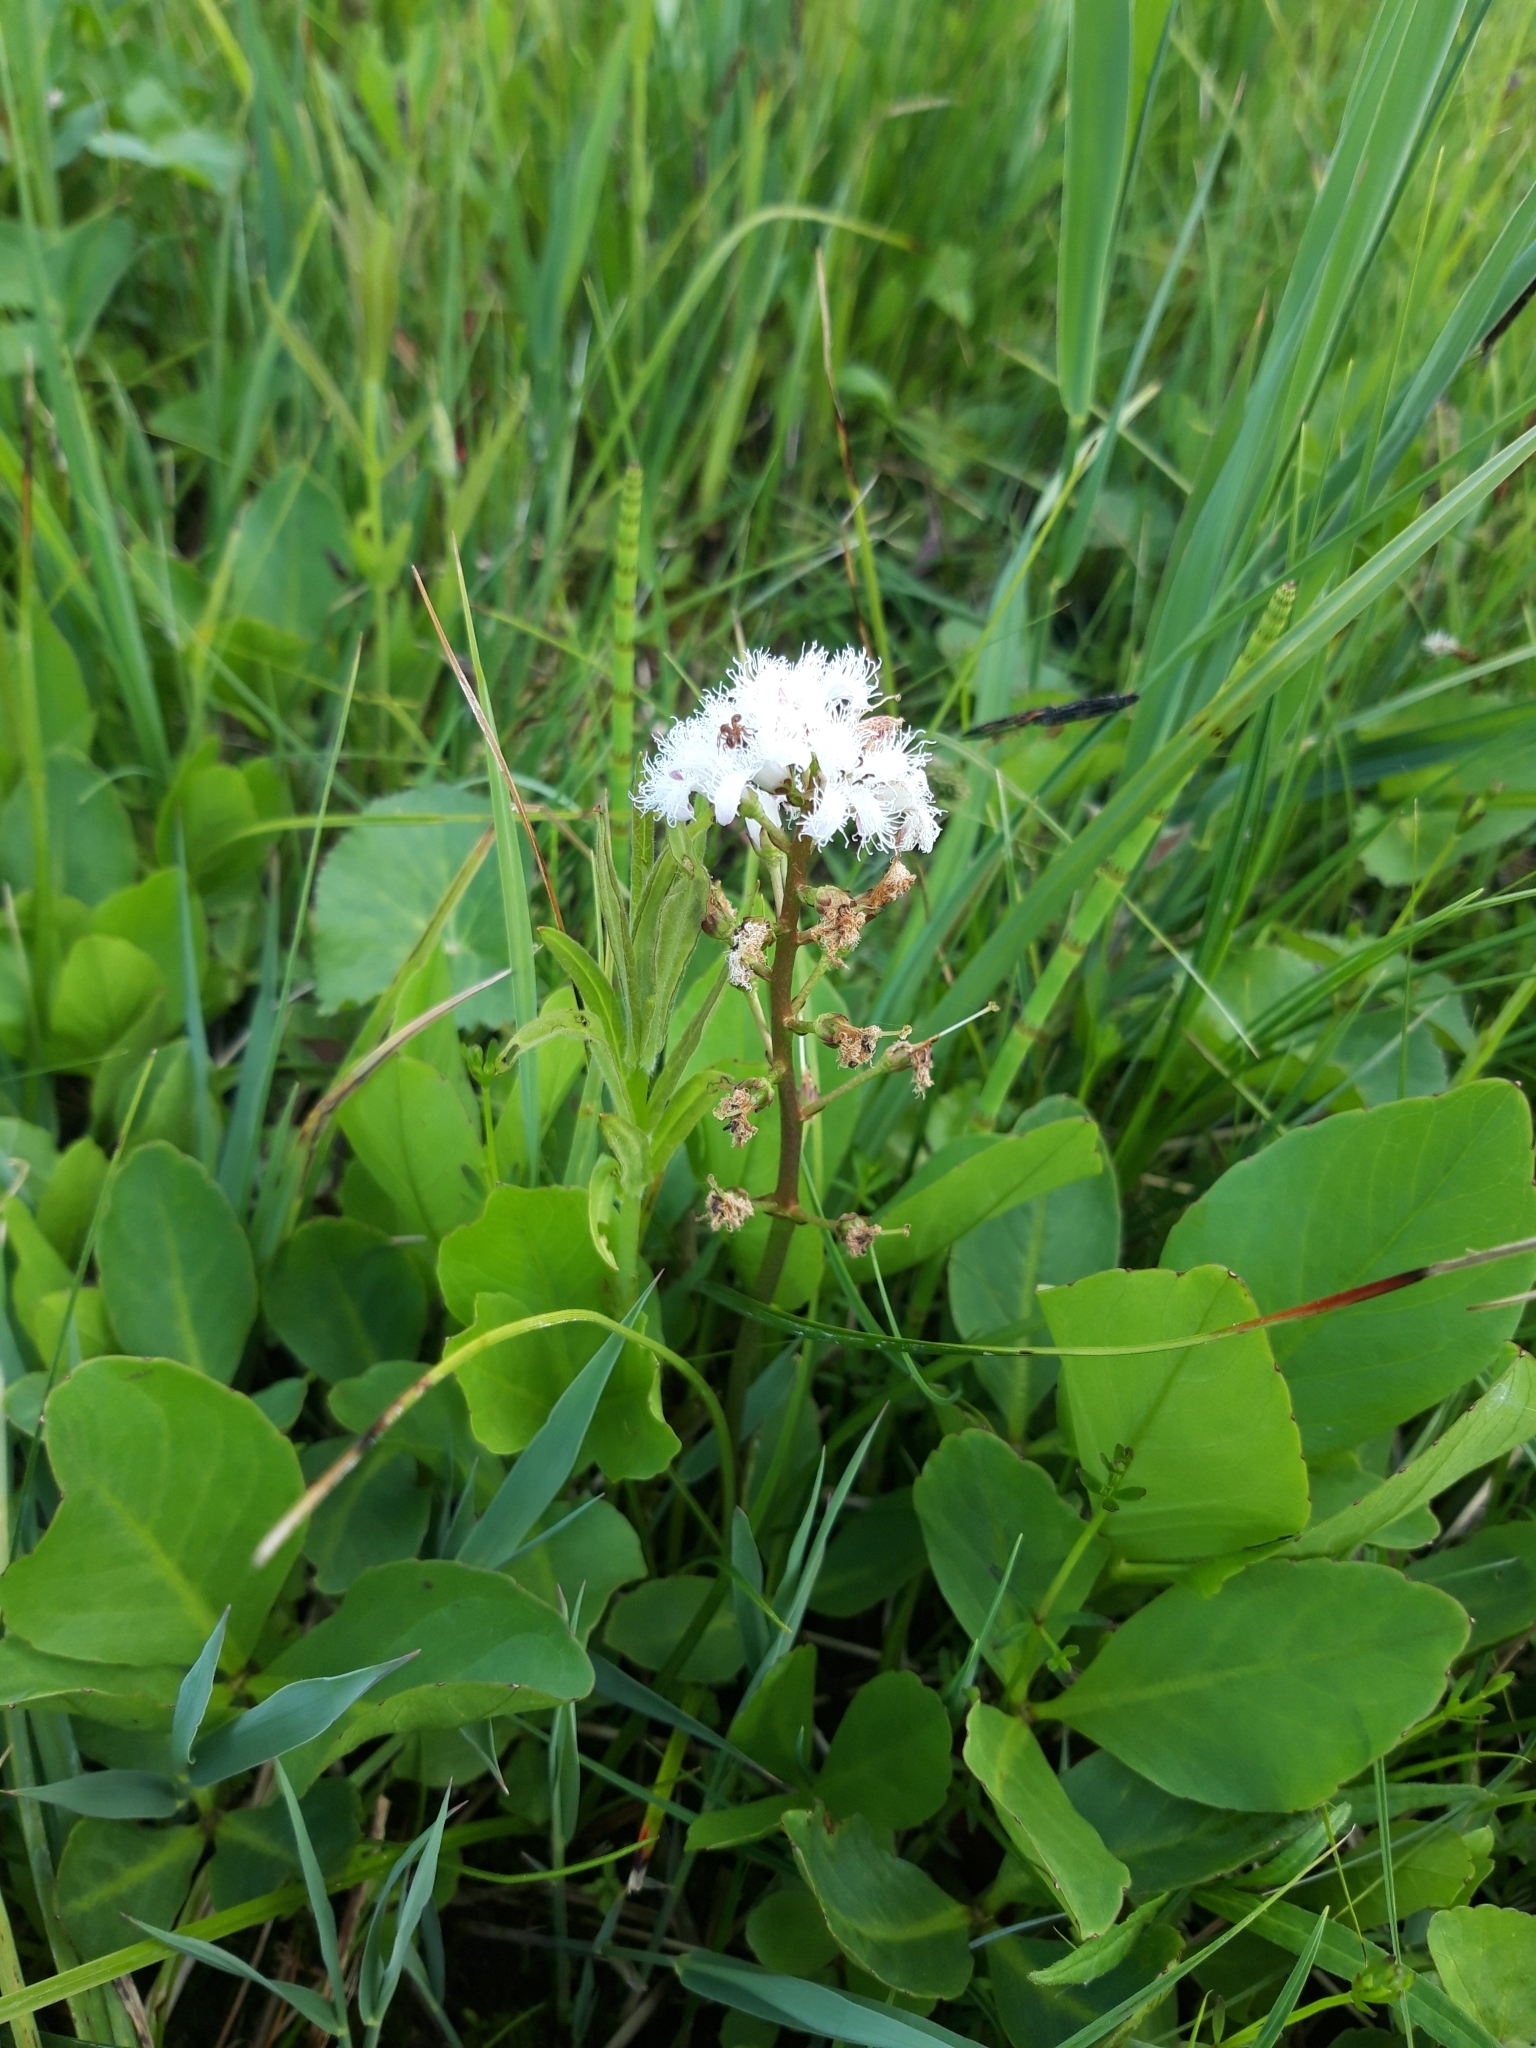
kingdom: Plantae
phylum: Tracheophyta
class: Magnoliopsida
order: Asterales
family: Menyanthaceae
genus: Menyanthes
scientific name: Menyanthes trifoliata
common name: Bogbean
